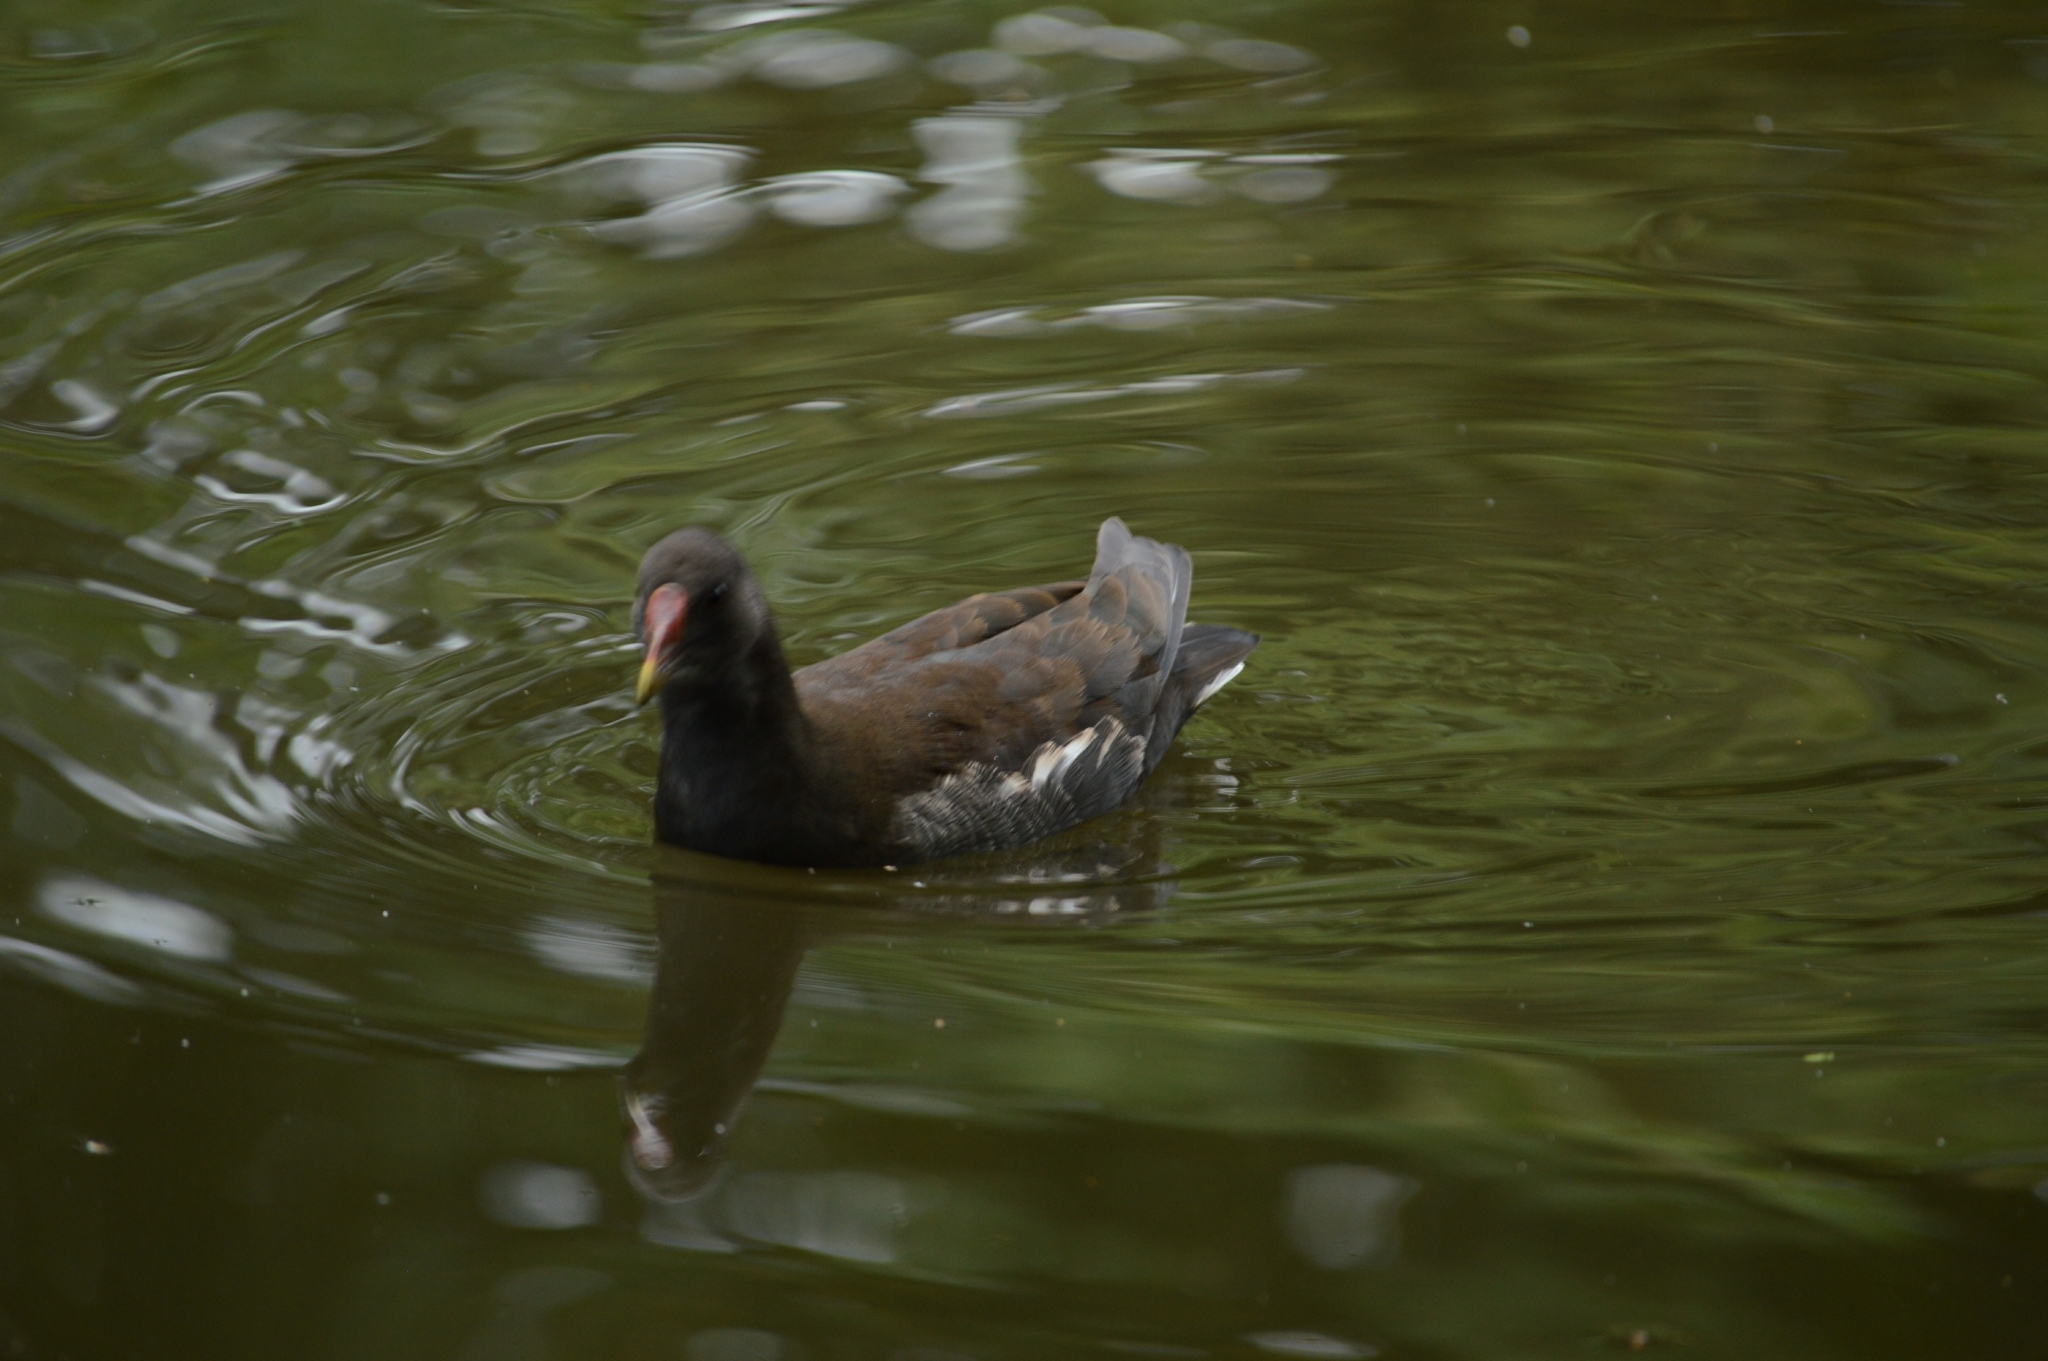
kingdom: Animalia
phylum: Chordata
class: Aves
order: Gruiformes
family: Rallidae
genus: Gallinula
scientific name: Gallinula chloropus
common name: Common moorhen
